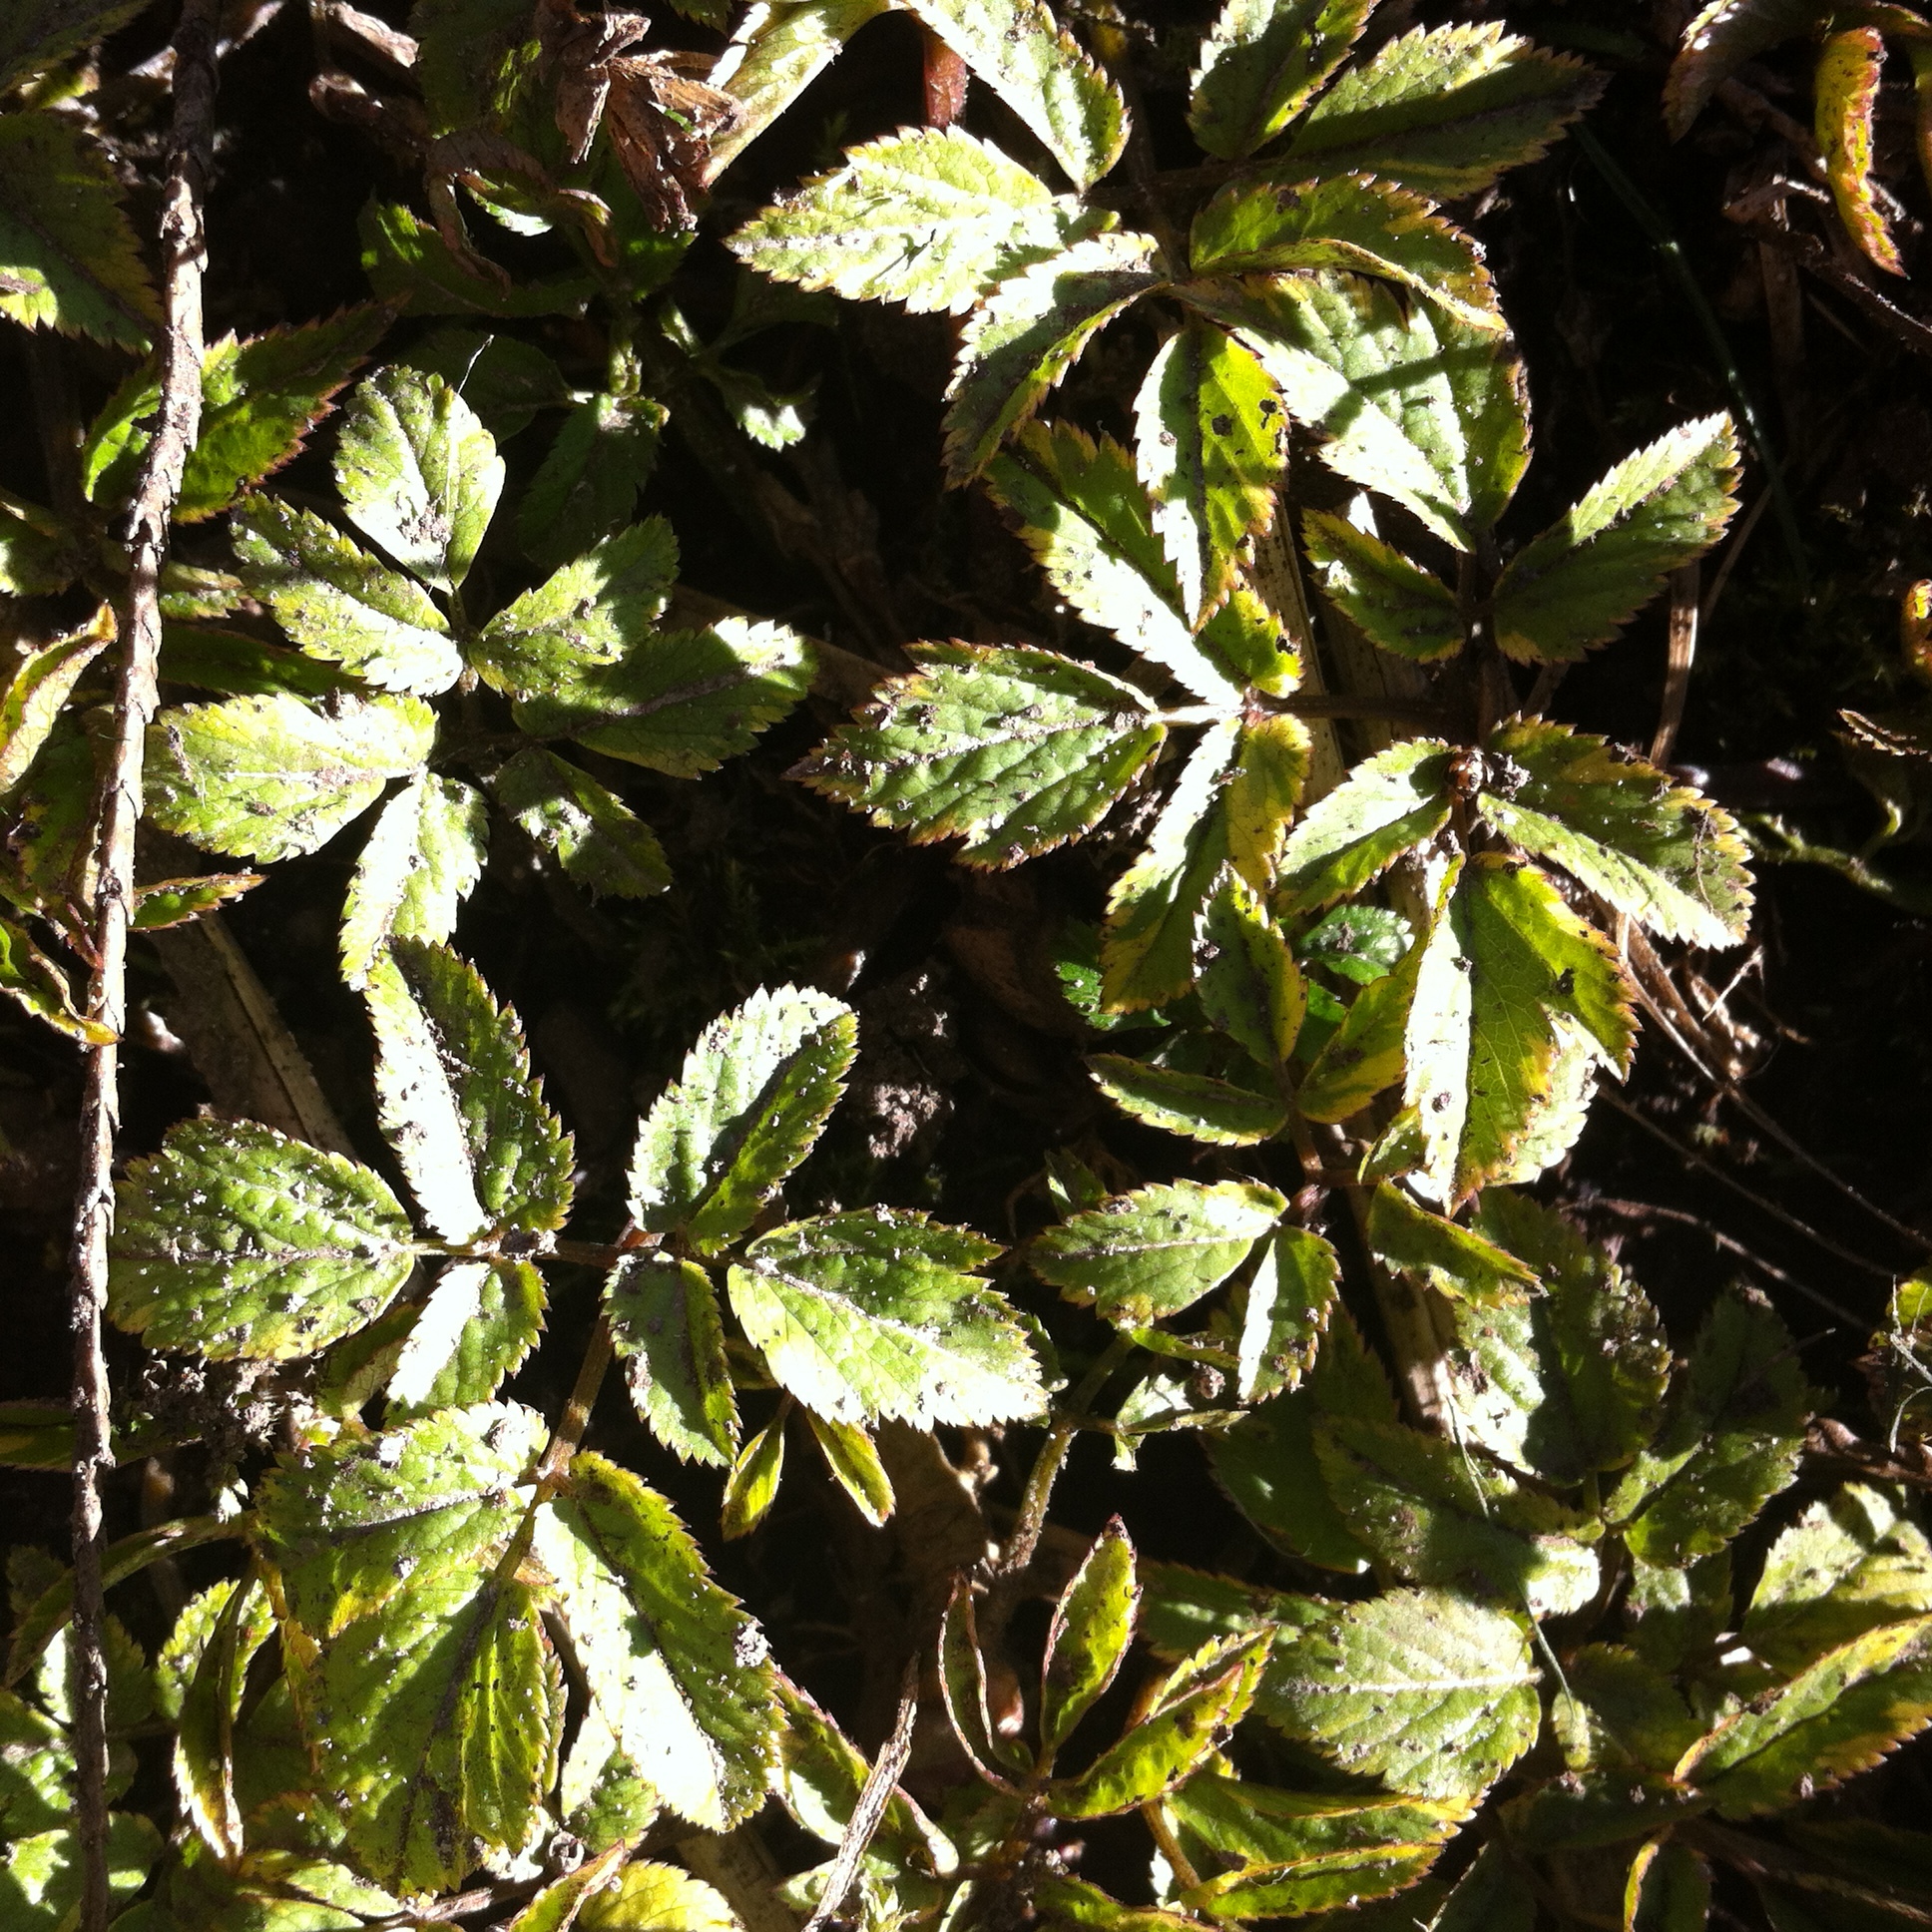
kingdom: Plantae
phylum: Tracheophyta
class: Magnoliopsida
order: Apiales
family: Apiaceae
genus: Aegopodium
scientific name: Aegopodium podagraria
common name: Ground-elder
